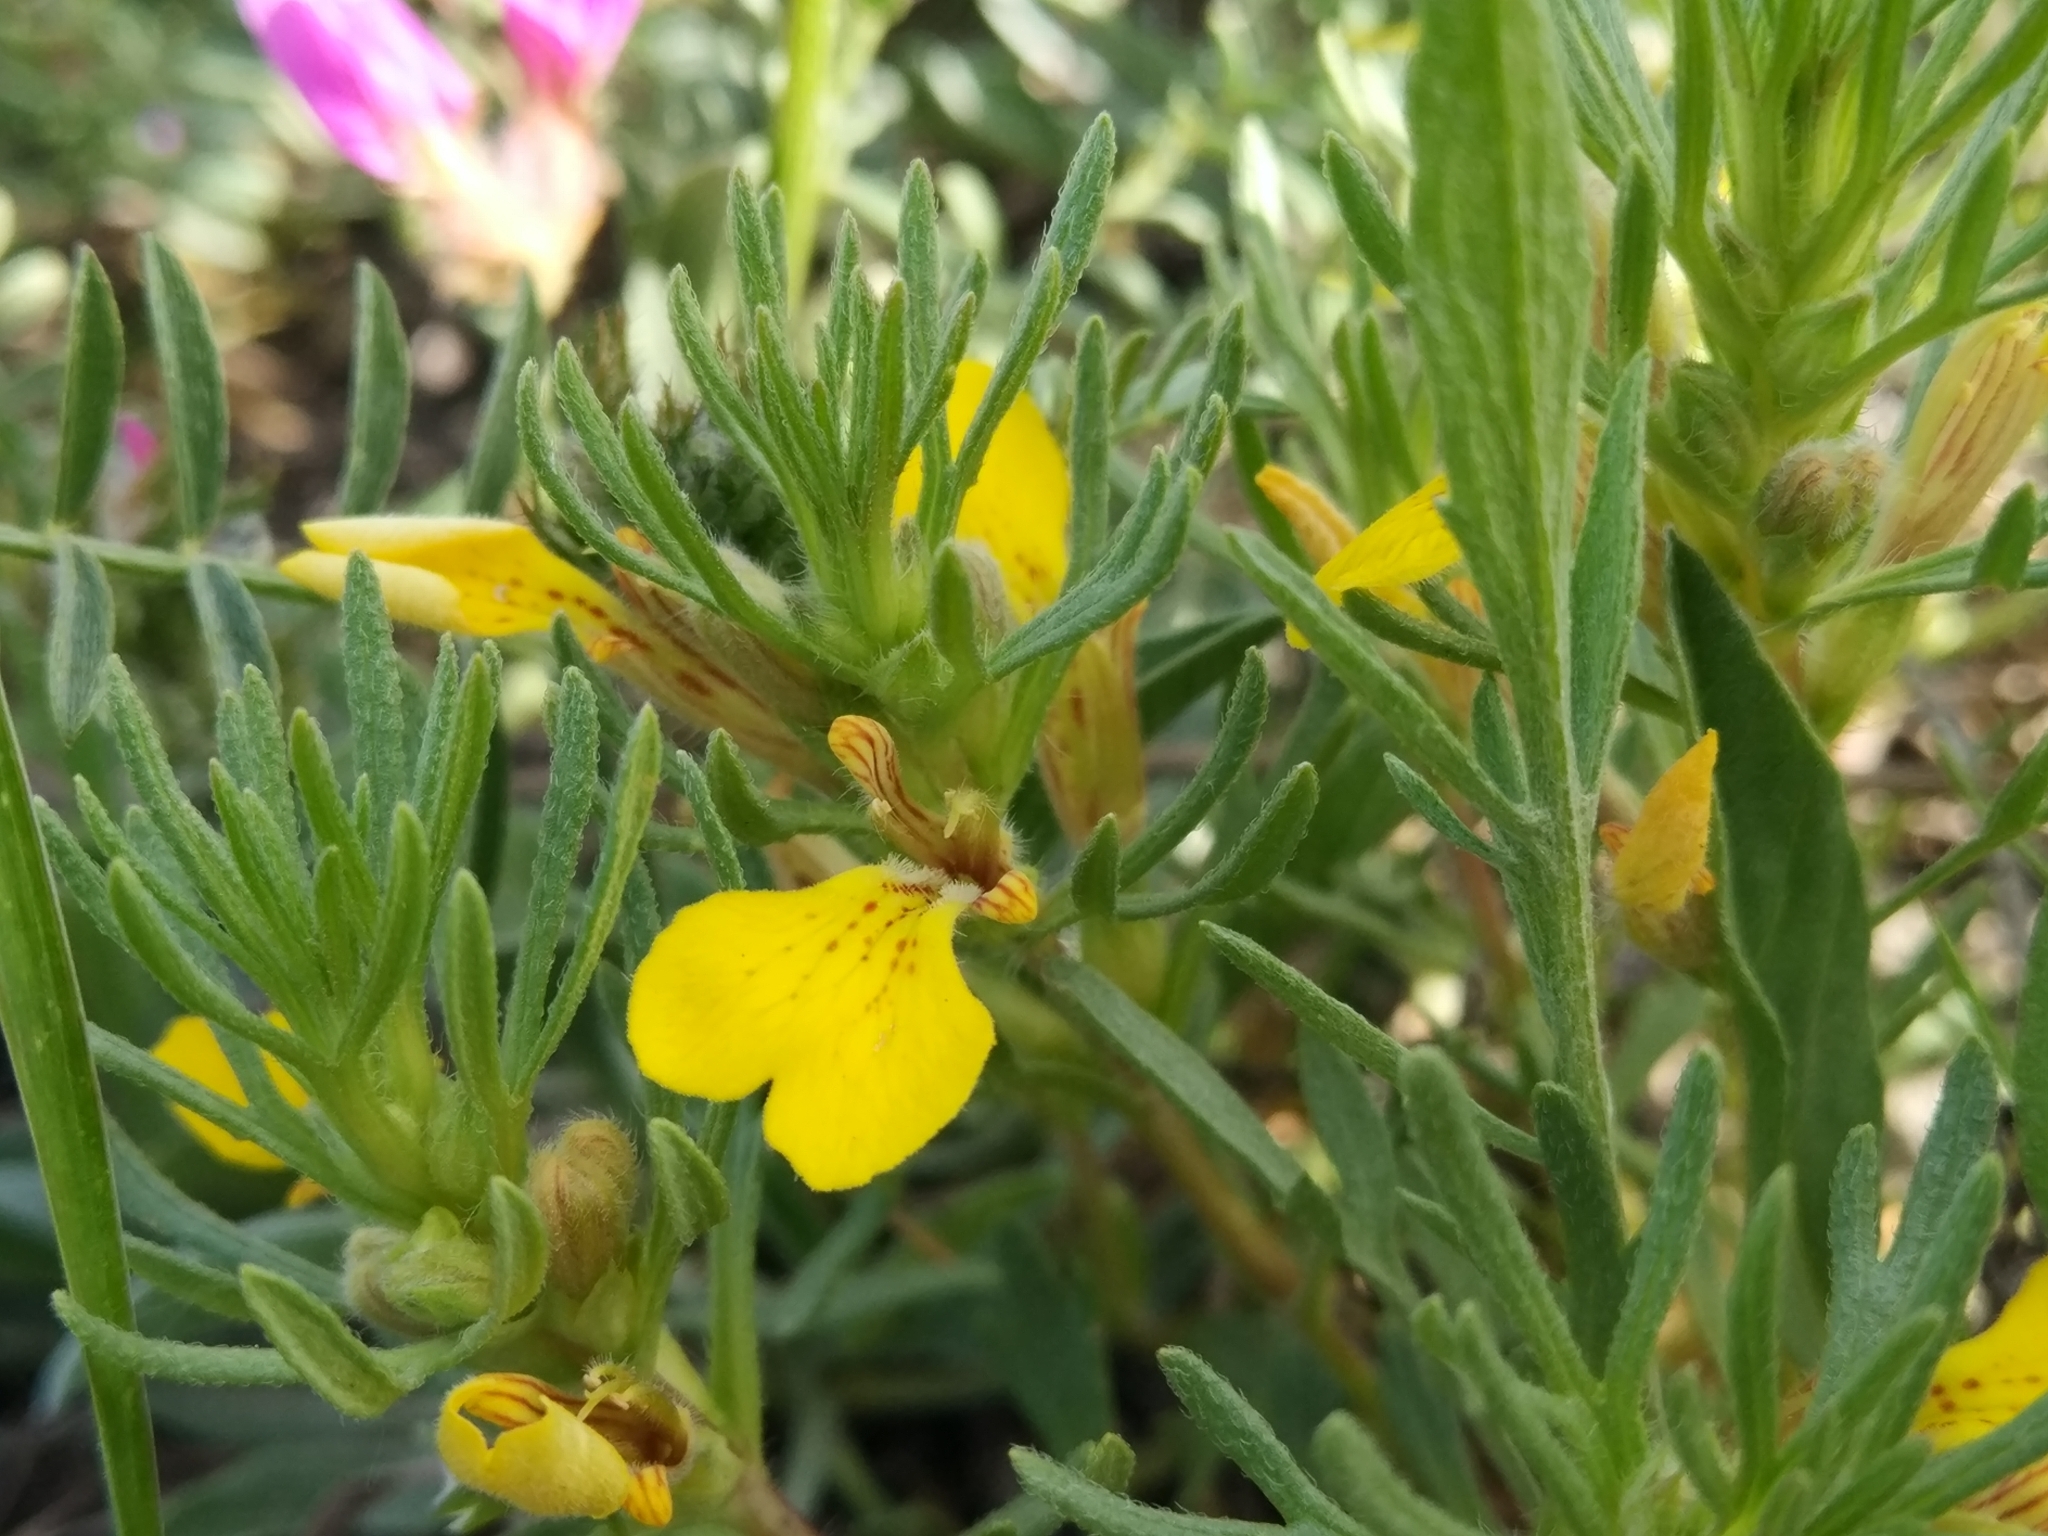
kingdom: Plantae
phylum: Tracheophyta
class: Magnoliopsida
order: Lamiales
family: Lamiaceae
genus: Ajuga
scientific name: Ajuga chamaepitys
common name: Ground-pine
